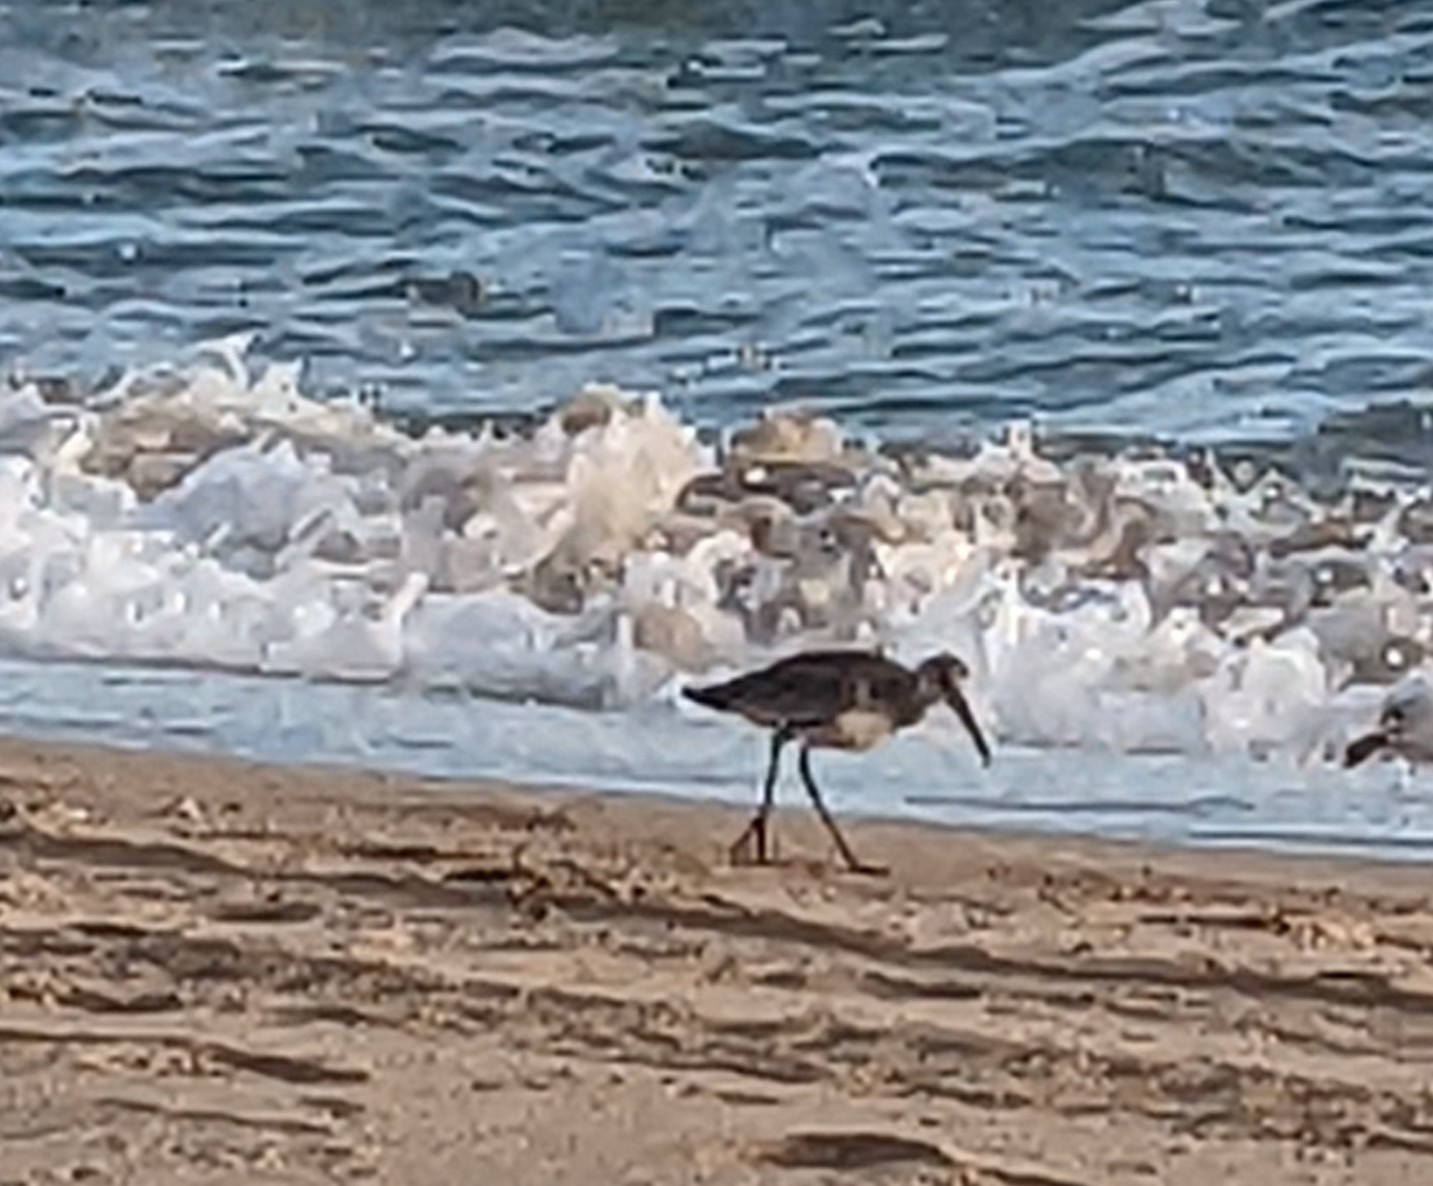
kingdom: Animalia
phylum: Chordata
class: Aves
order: Charadriiformes
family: Scolopacidae
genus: Tringa
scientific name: Tringa semipalmata
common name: Willet
